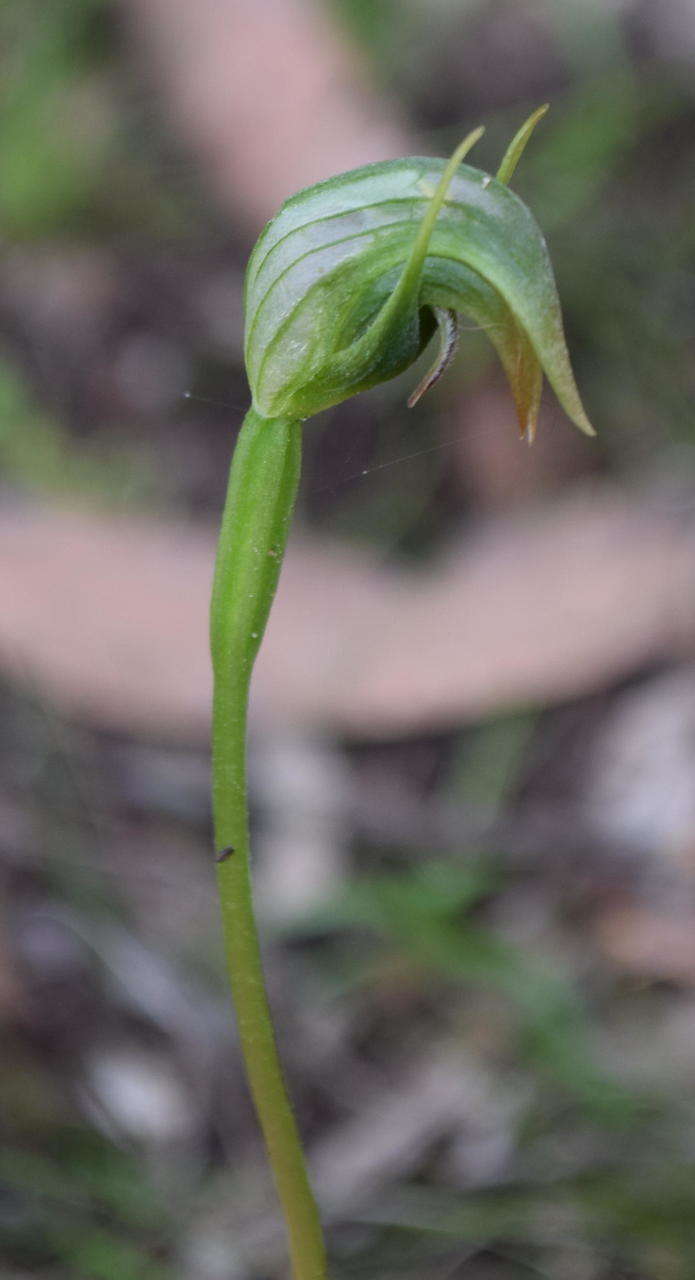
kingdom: Plantae
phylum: Tracheophyta
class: Liliopsida
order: Asparagales
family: Orchidaceae
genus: Pterostylis
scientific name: Pterostylis nutans
